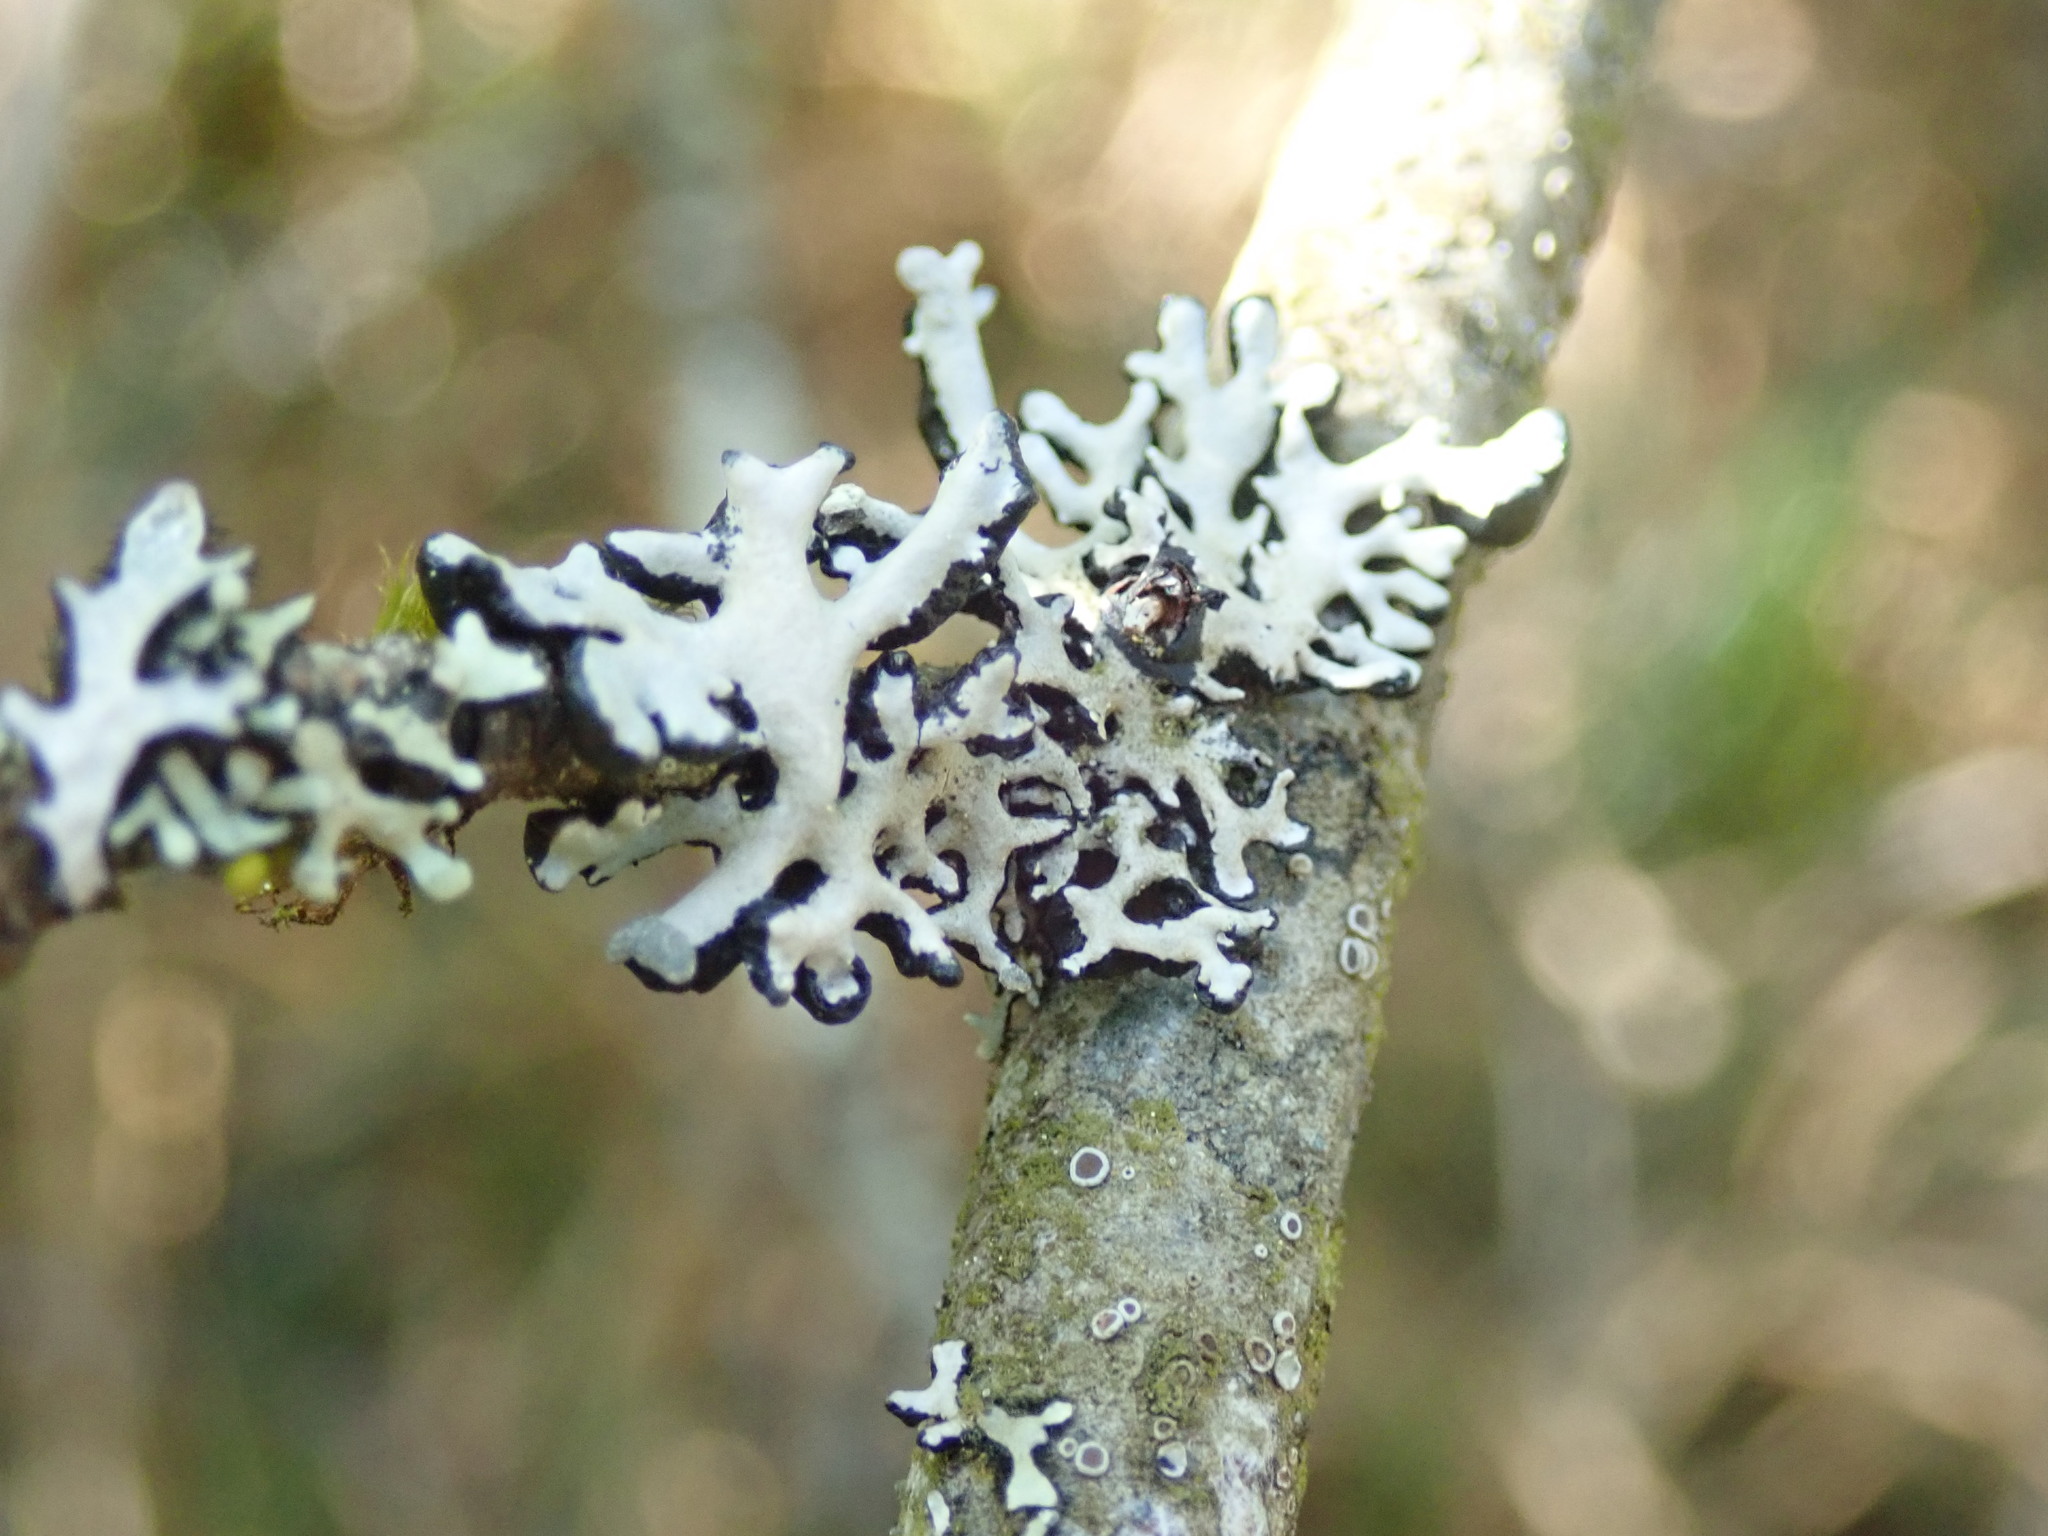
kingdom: Fungi
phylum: Ascomycota
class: Lecanoromycetes
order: Lecanorales
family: Parmeliaceae
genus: Hypogymnia
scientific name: Hypogymnia physodes
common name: Dark crottle
